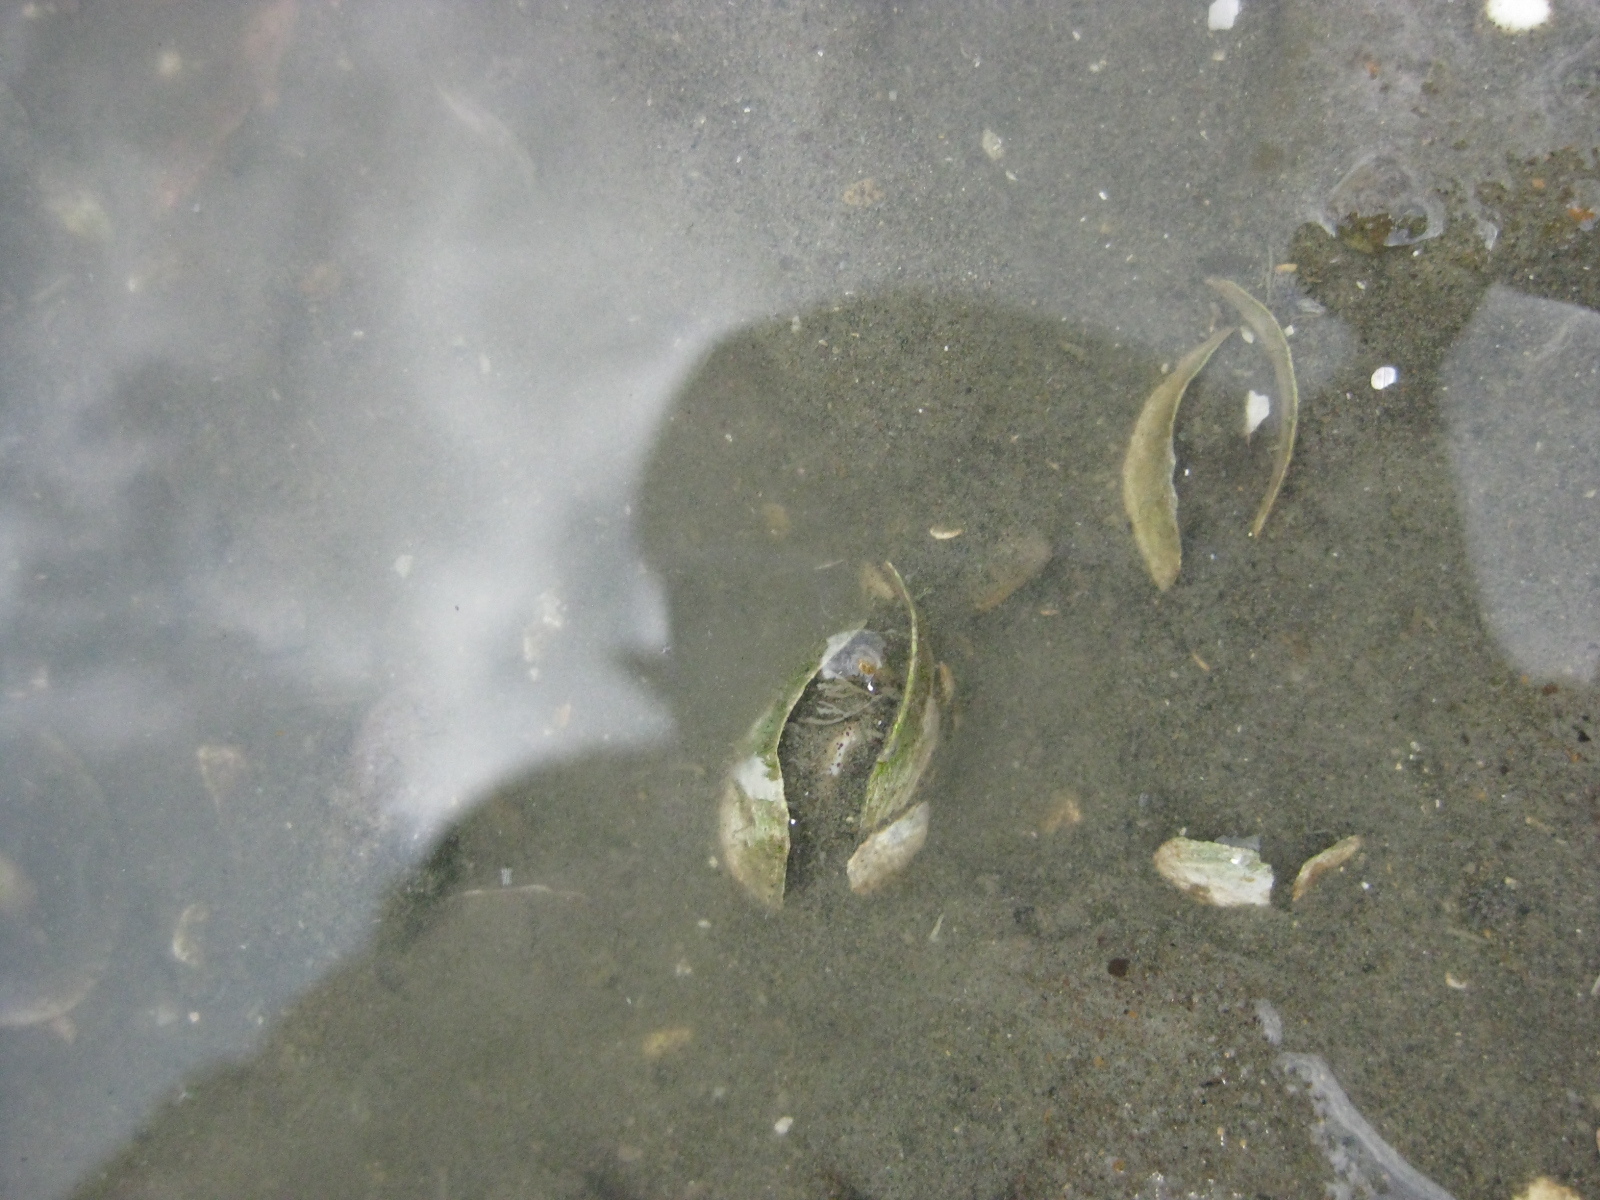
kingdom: Animalia
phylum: Mollusca
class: Bivalvia
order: Myida
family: Pholadidae
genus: Barnea
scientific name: Barnea similis
